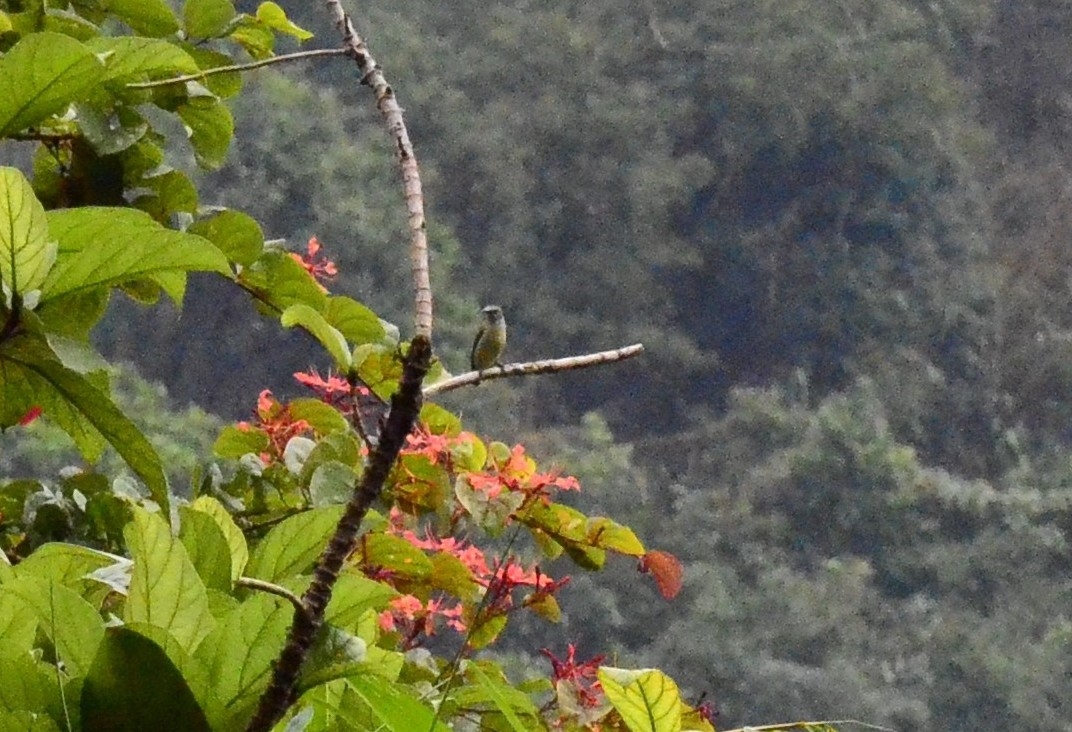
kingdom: Animalia
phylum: Chordata
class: Aves
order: Passeriformes
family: Dicaeidae
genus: Dicaeum
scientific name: Dicaeum concolor
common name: Nilgiri flowerpecker
